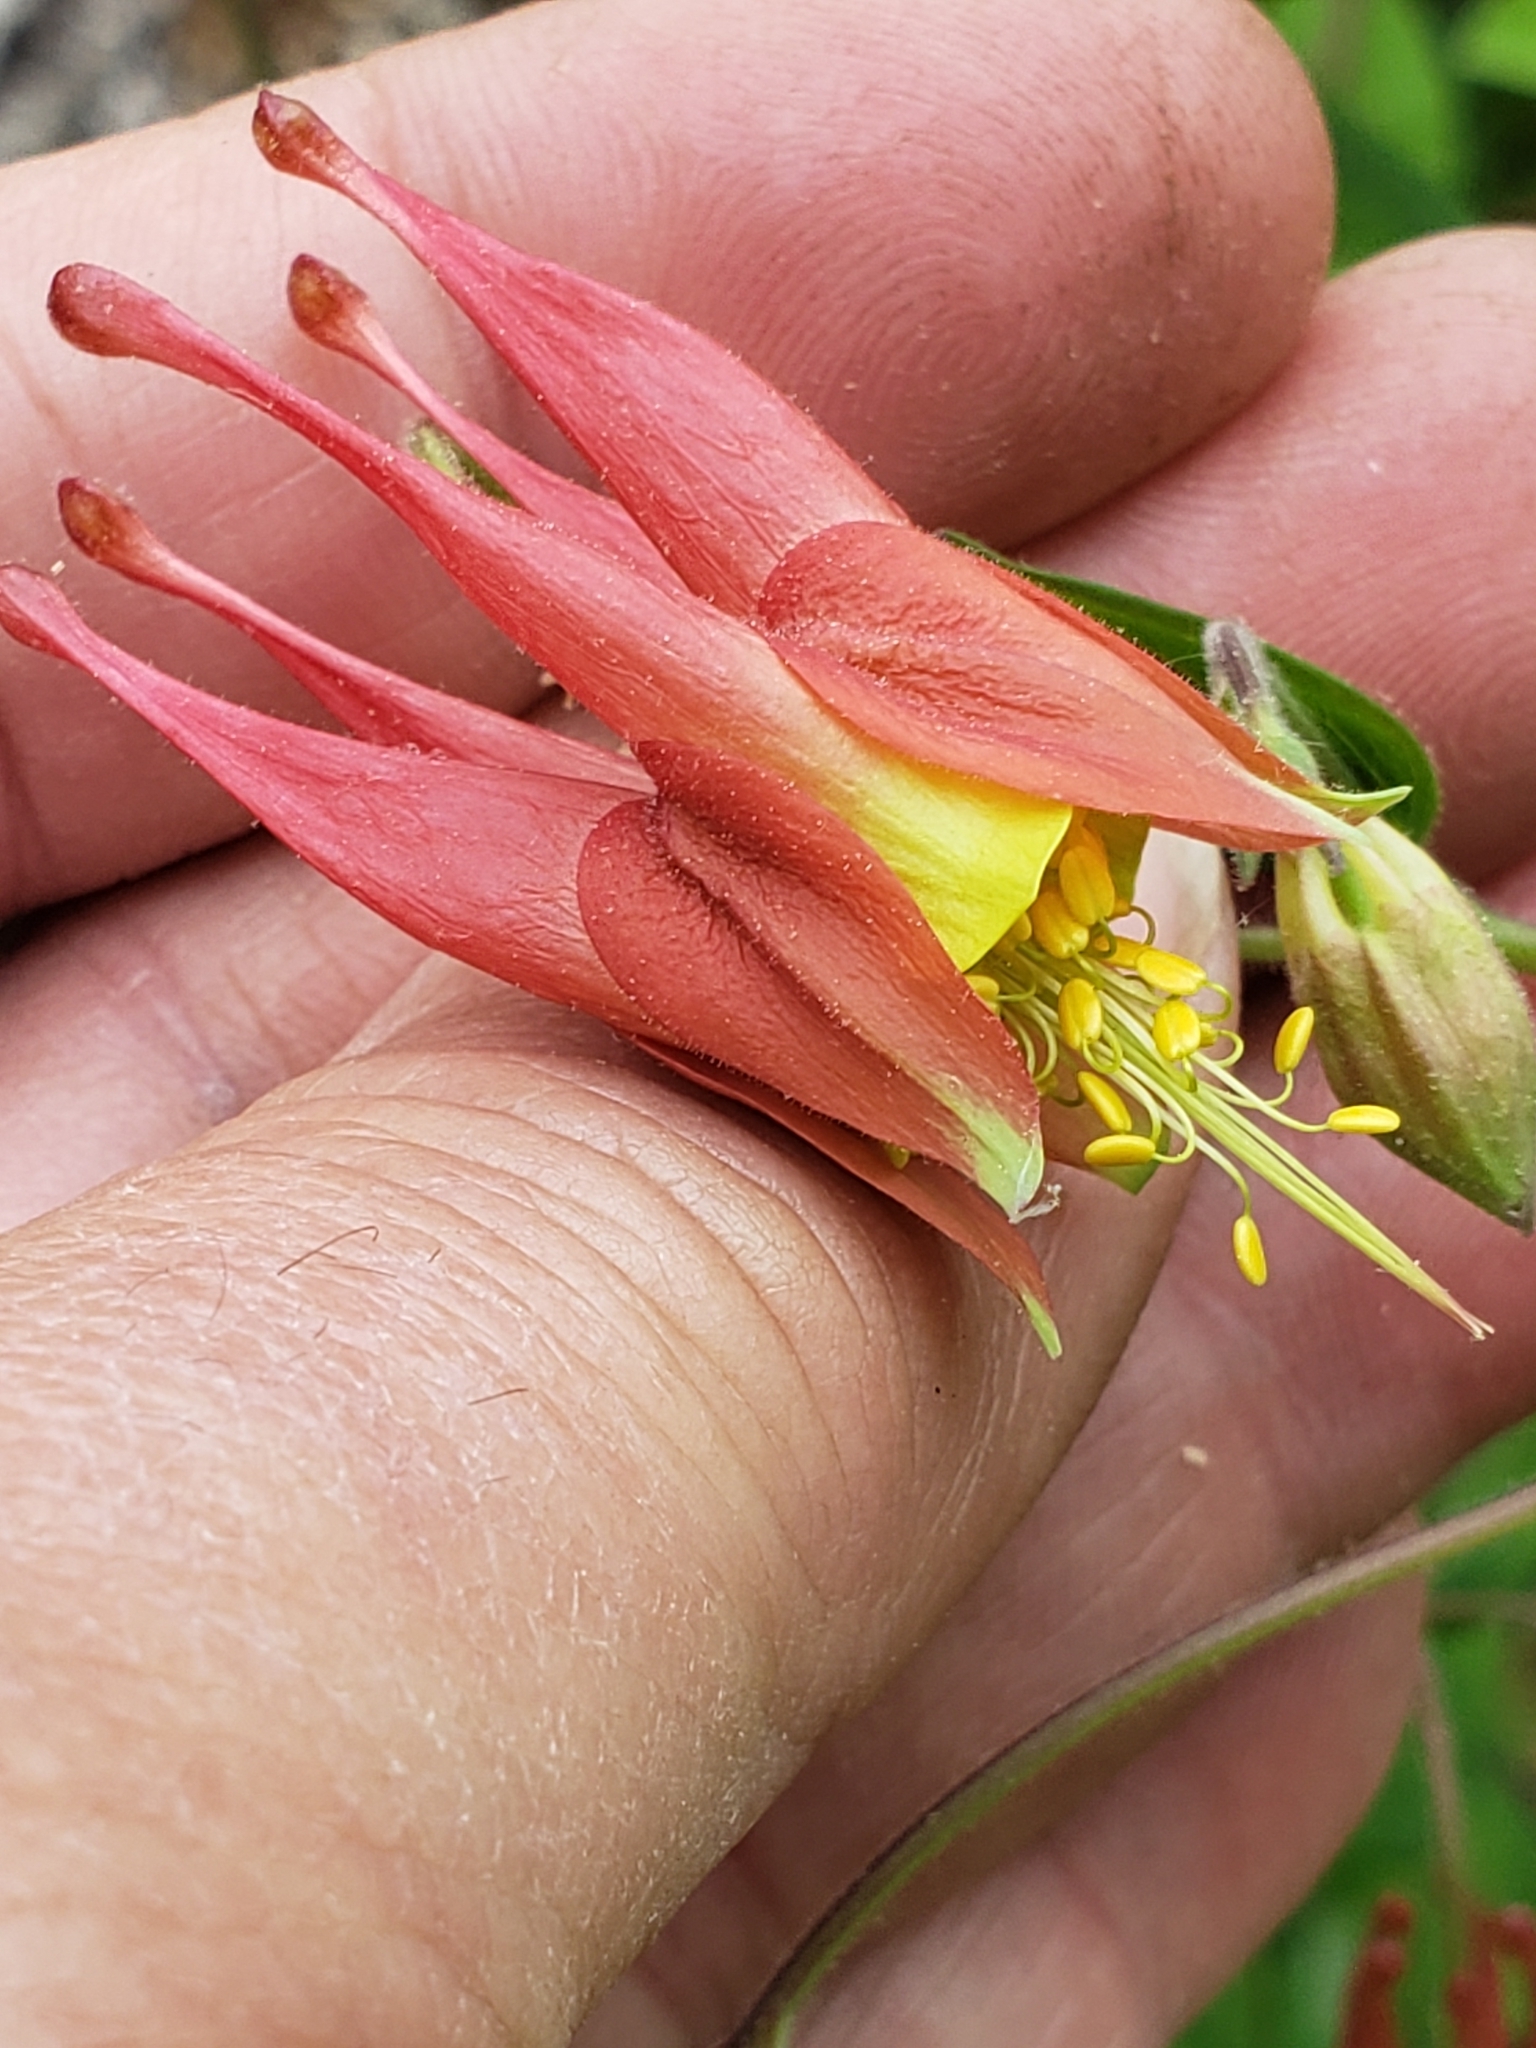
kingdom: Plantae
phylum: Tracheophyta
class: Magnoliopsida
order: Ranunculales
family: Ranunculaceae
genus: Aquilegia
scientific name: Aquilegia canadensis
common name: American columbine
